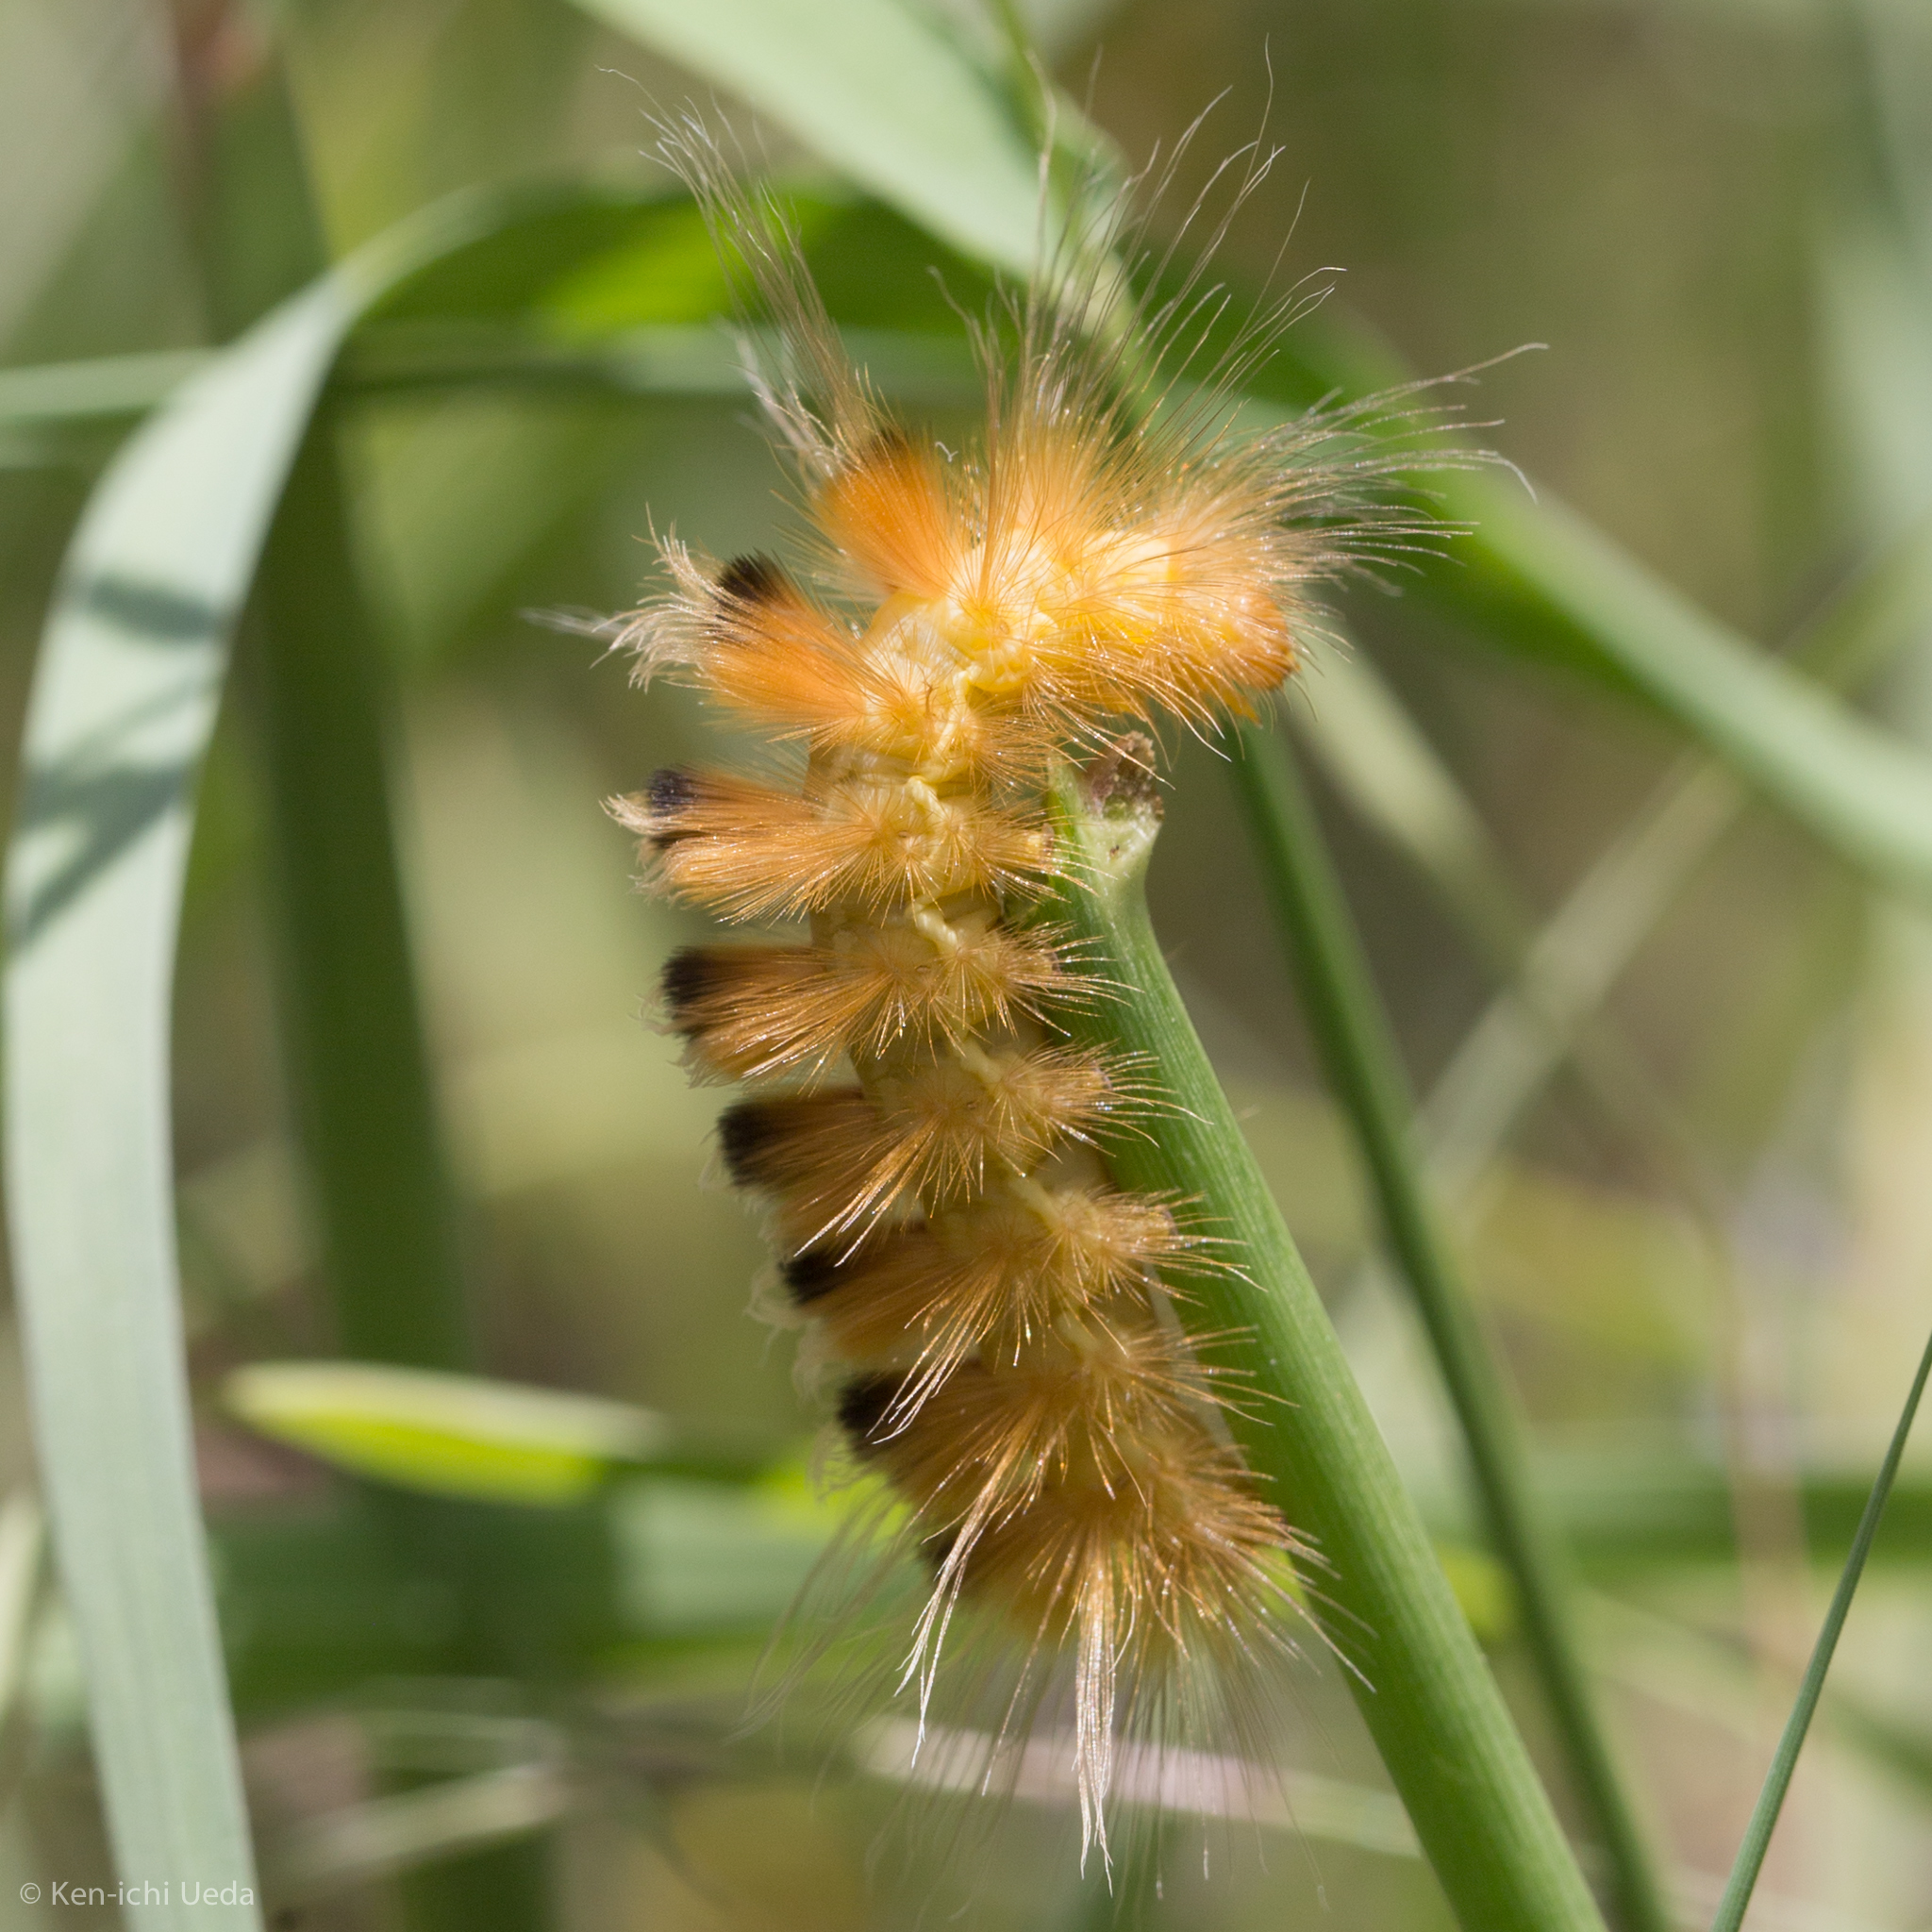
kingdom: Animalia
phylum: Arthropoda
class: Insecta
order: Lepidoptera
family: Erebidae
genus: Pygarctia
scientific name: Pygarctia roseicapitis
